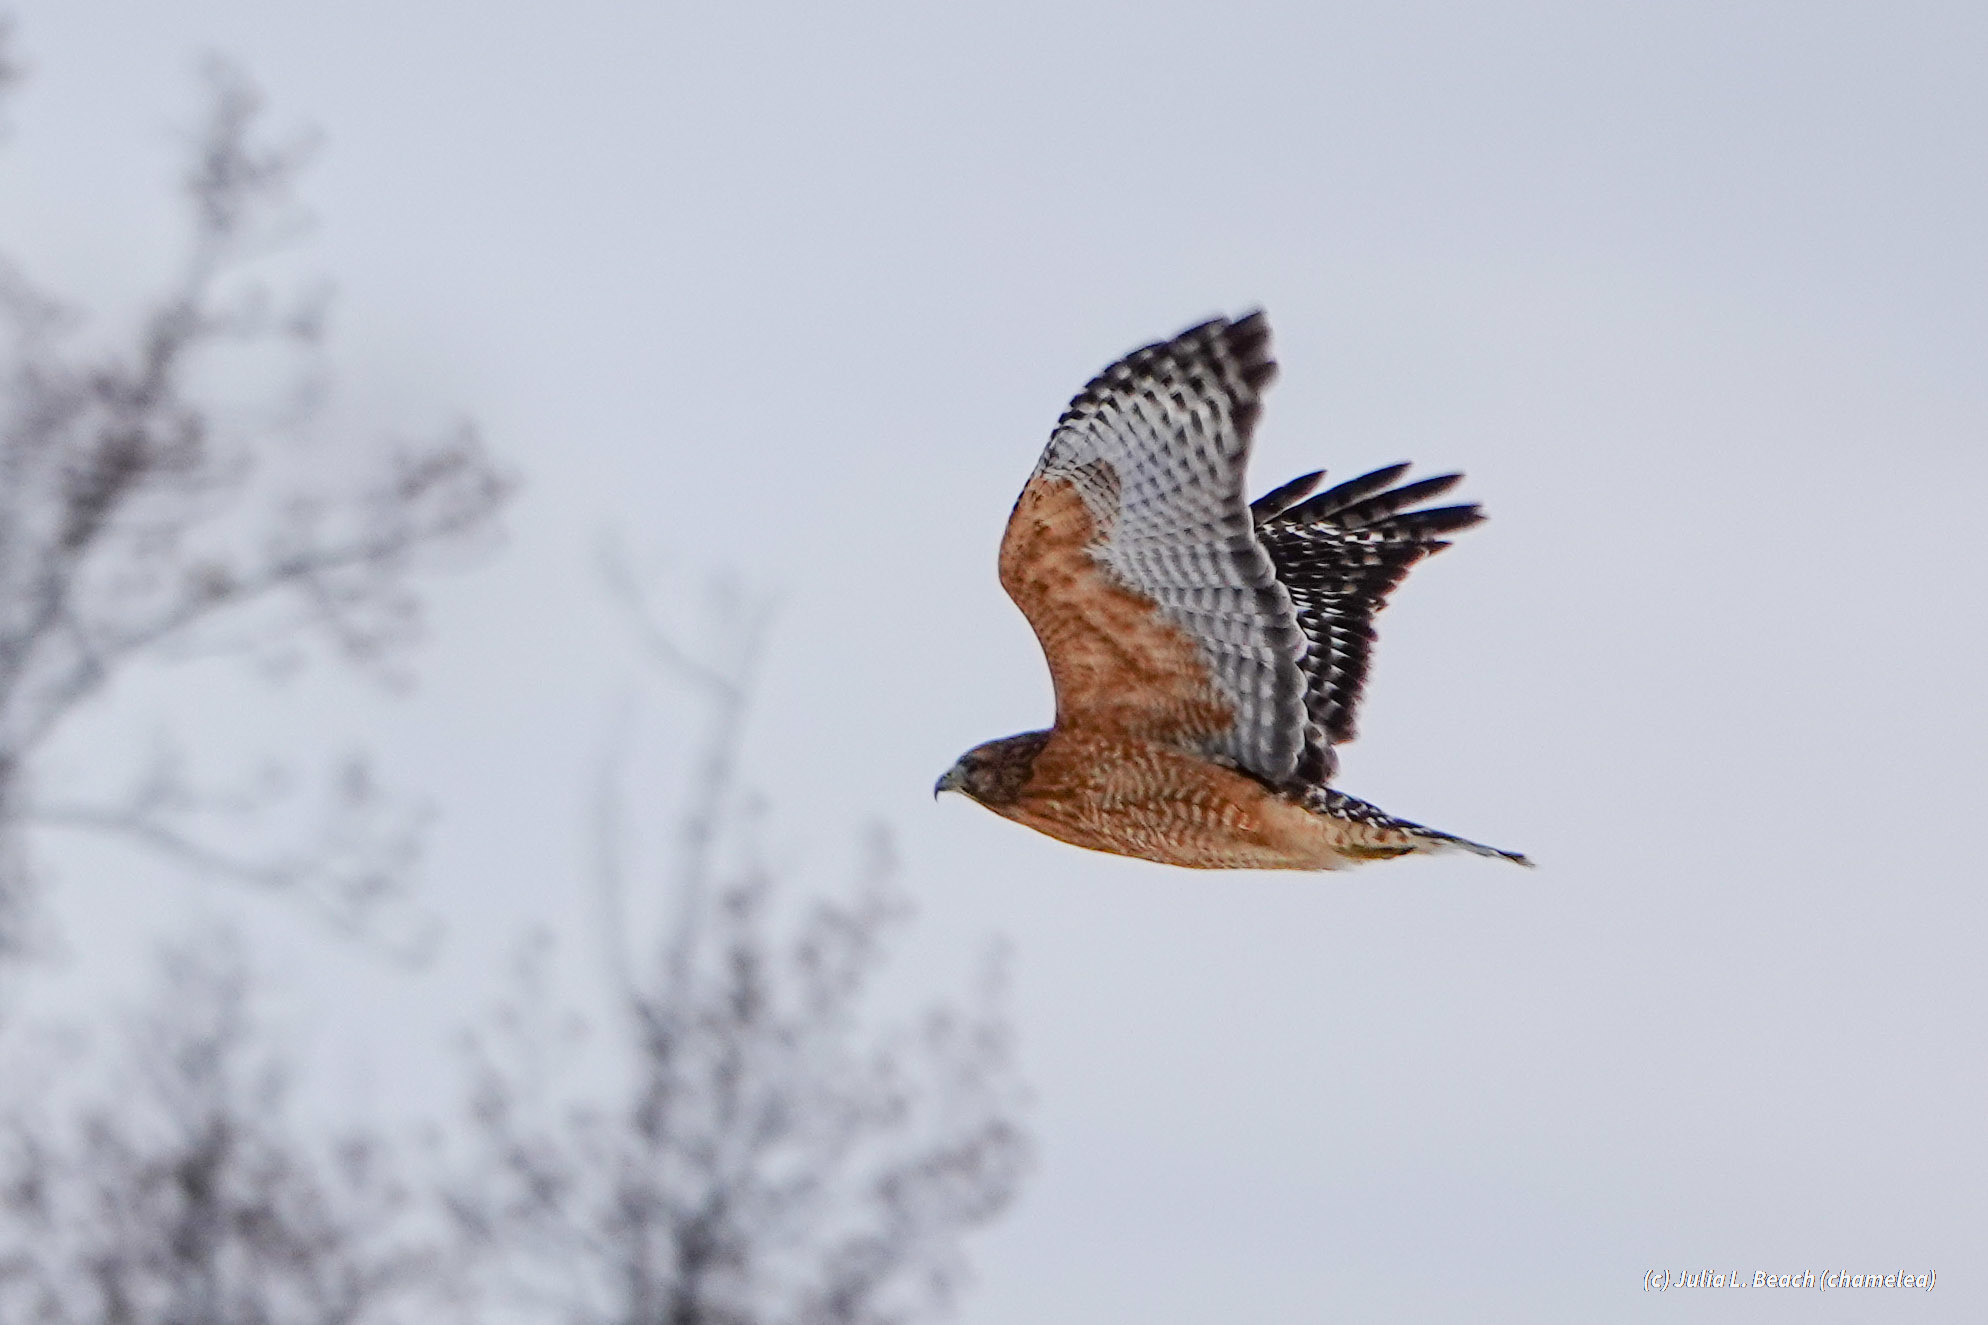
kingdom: Animalia
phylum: Chordata
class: Aves
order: Accipitriformes
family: Accipitridae
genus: Buteo
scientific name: Buteo lineatus
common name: Red-shouldered hawk
